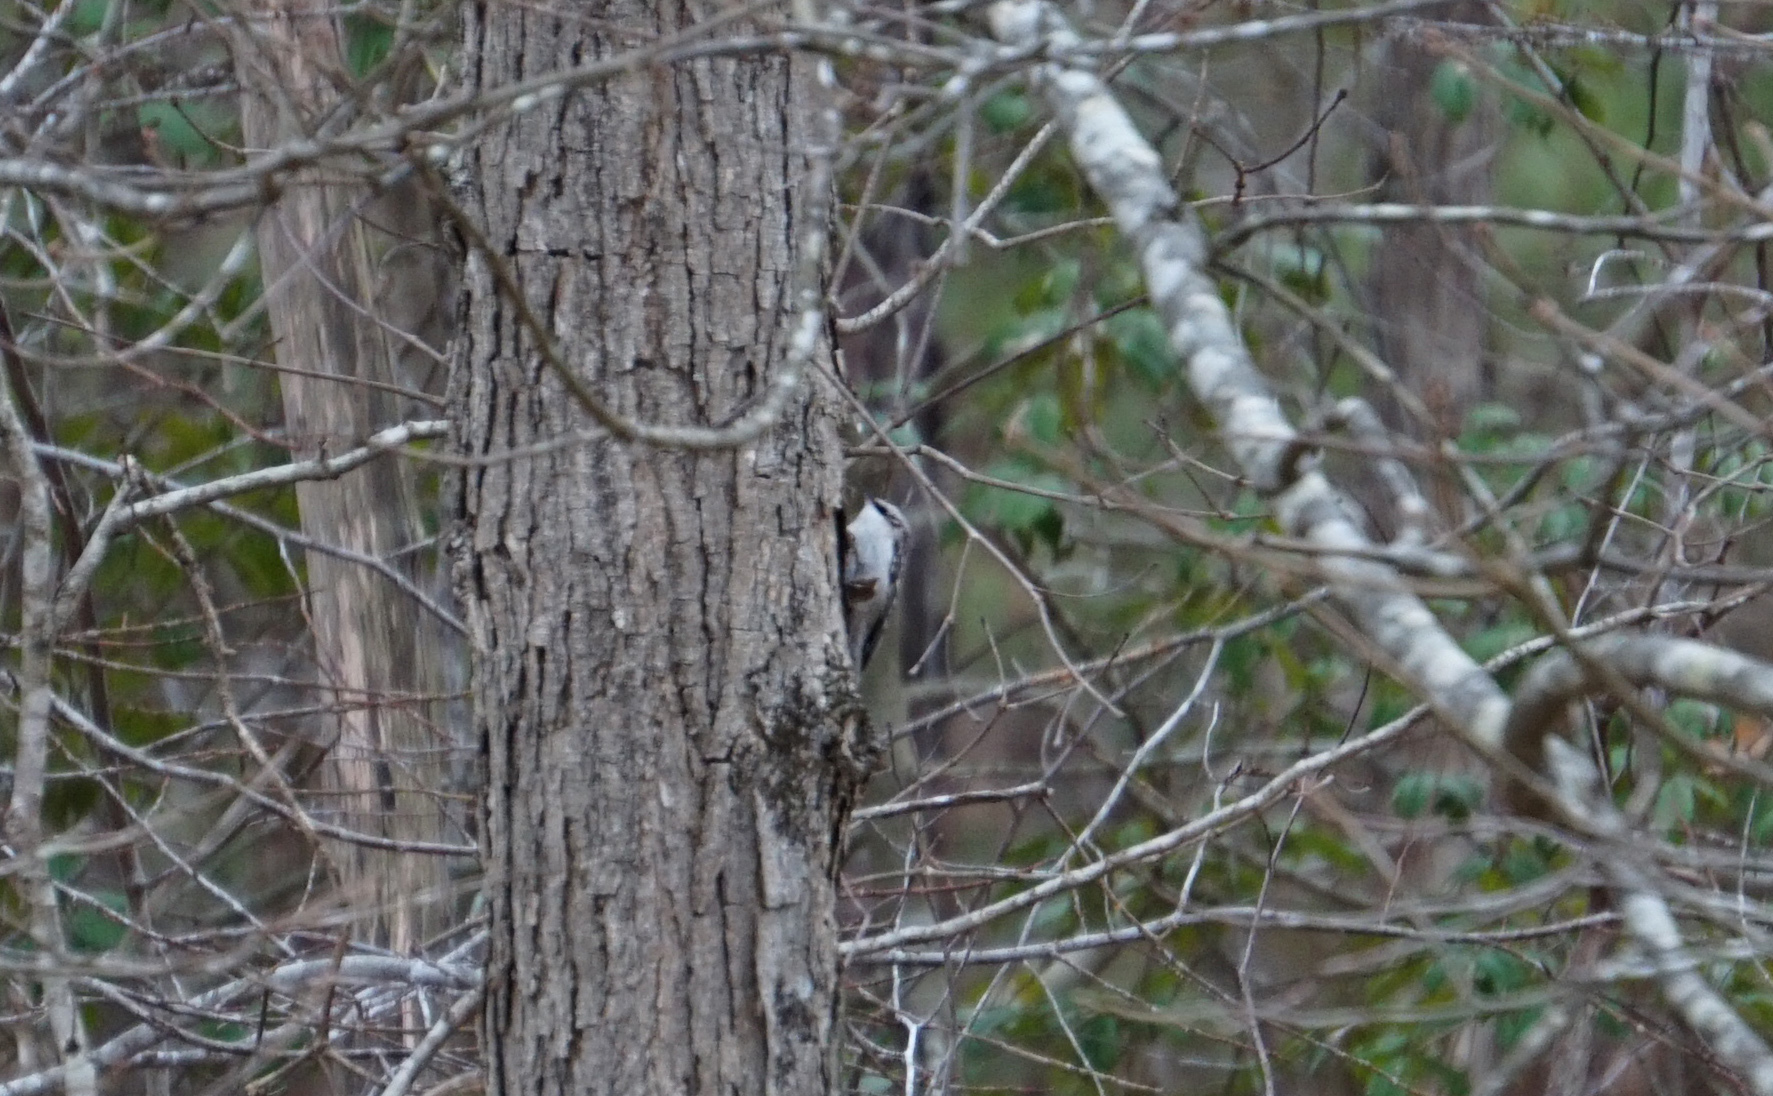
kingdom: Animalia
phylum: Chordata
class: Aves
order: Passeriformes
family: Certhiidae
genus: Certhia
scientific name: Certhia americana
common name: Brown creeper
